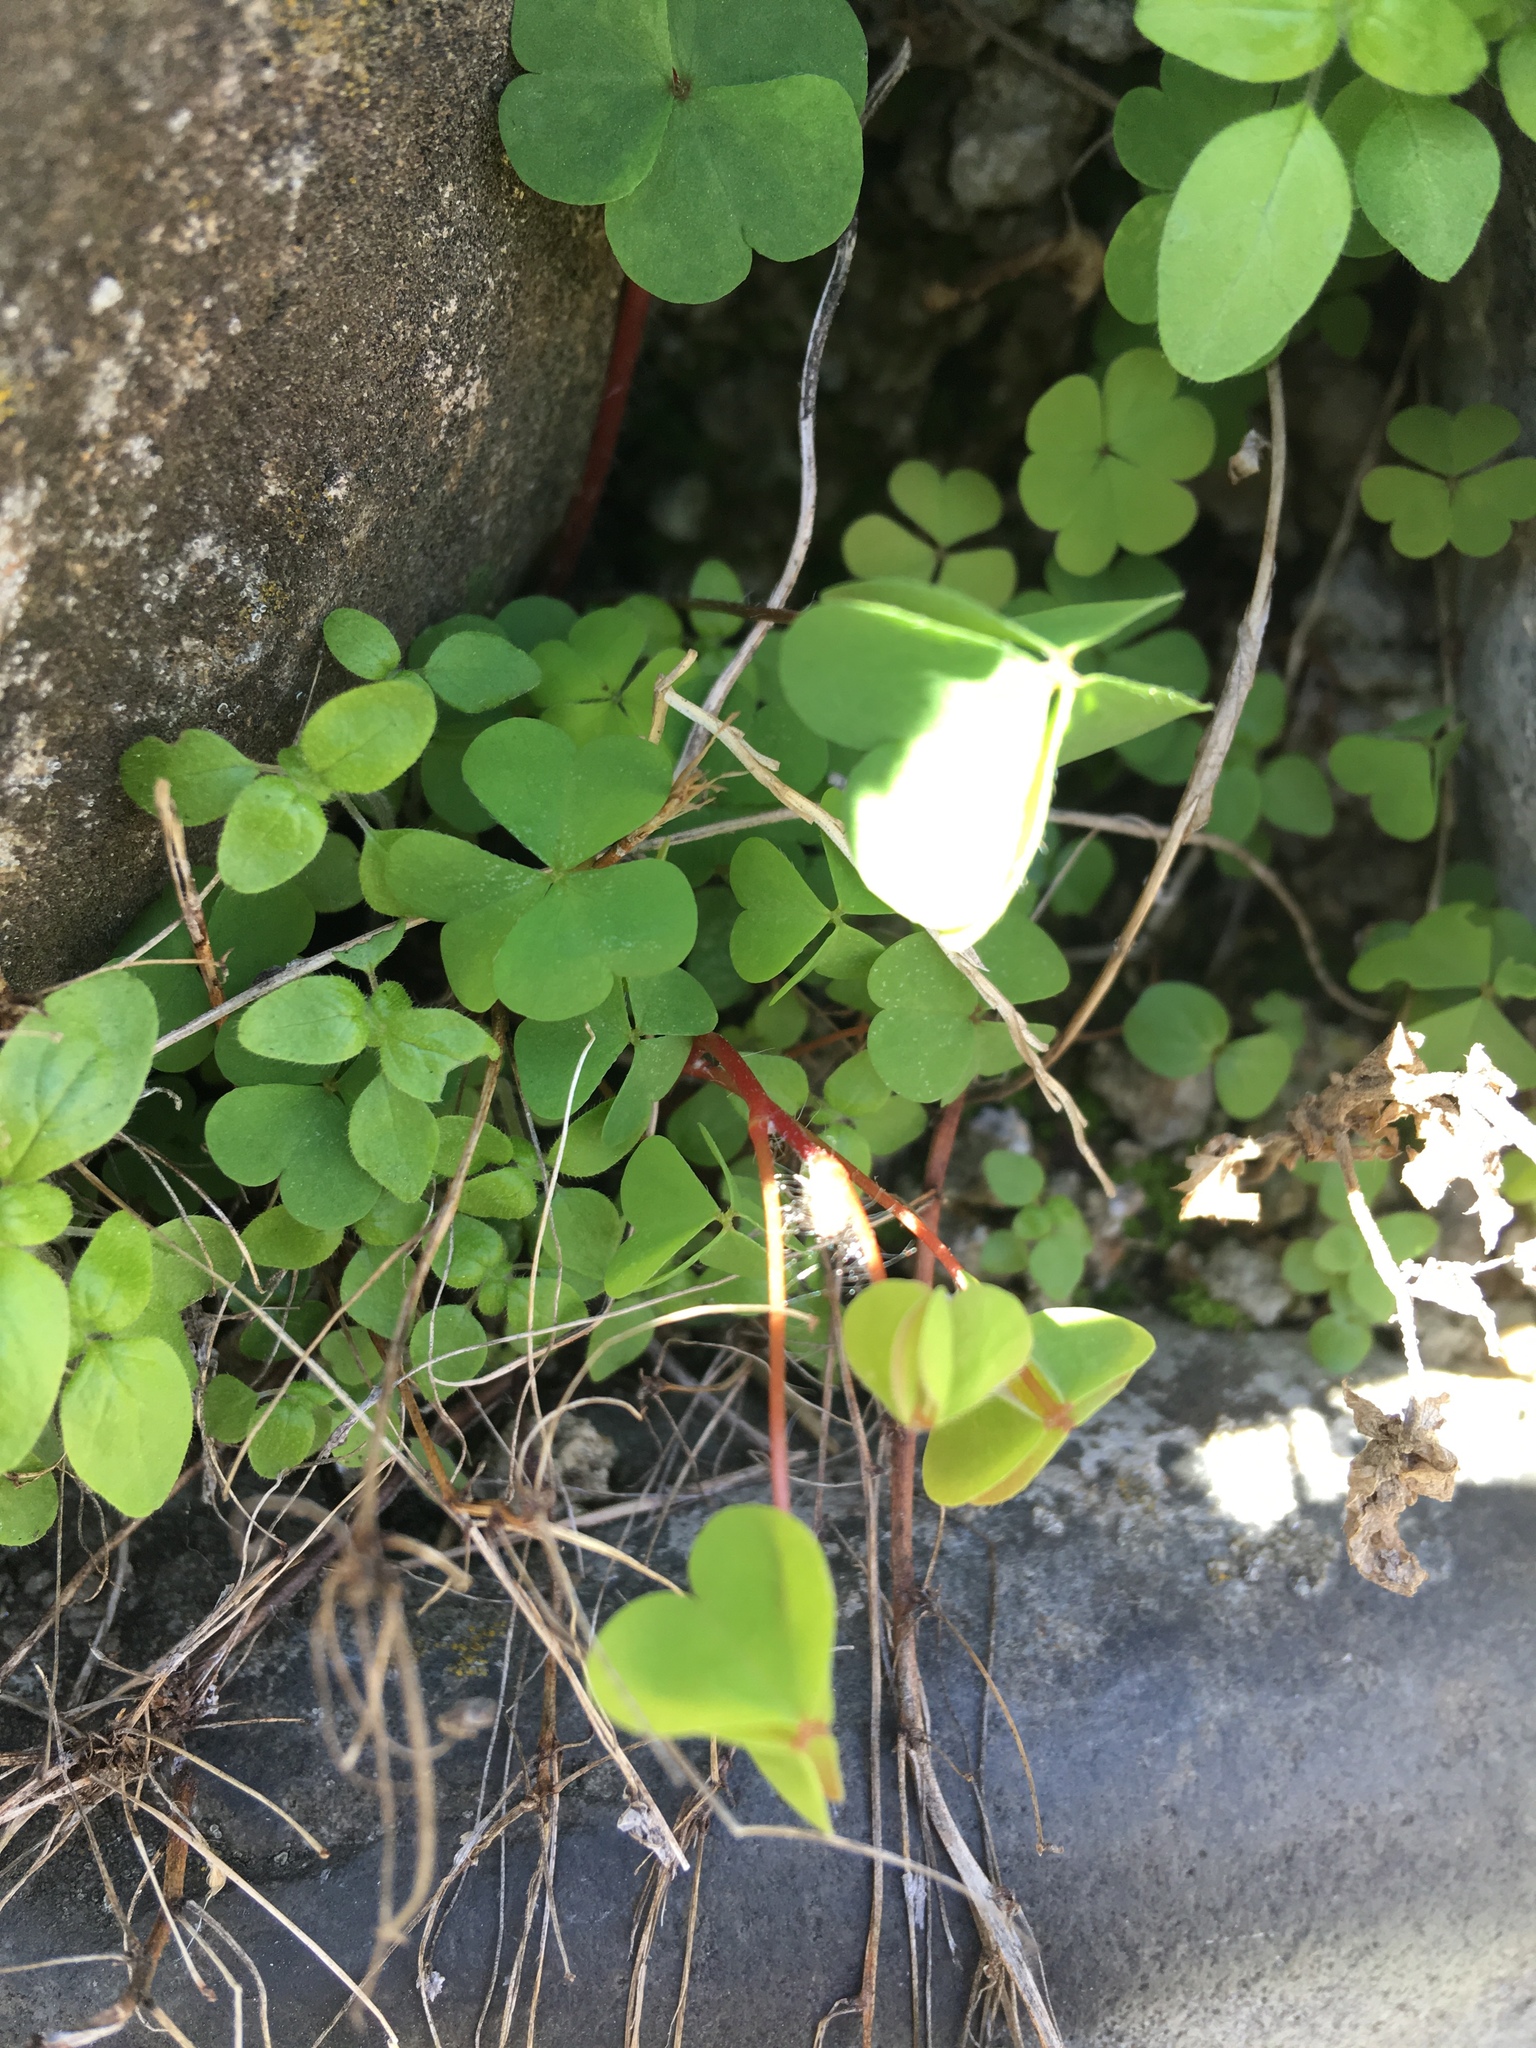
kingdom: Plantae
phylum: Tracheophyta
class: Magnoliopsida
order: Oxalidales
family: Oxalidaceae
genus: Oxalis
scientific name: Oxalis corniculata
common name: Procumbent yellow-sorrel
